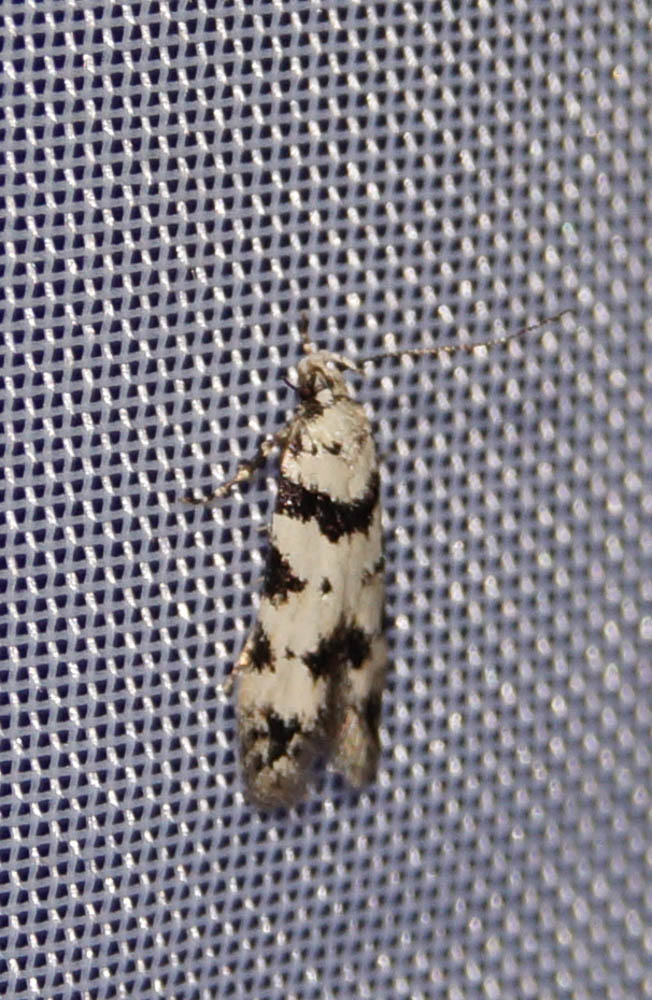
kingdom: Animalia
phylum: Arthropoda
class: Insecta
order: Lepidoptera
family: Gelechiidae
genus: Pseudotelphusa
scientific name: Pseudotelphusa scalella
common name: Black-spotted groundling
